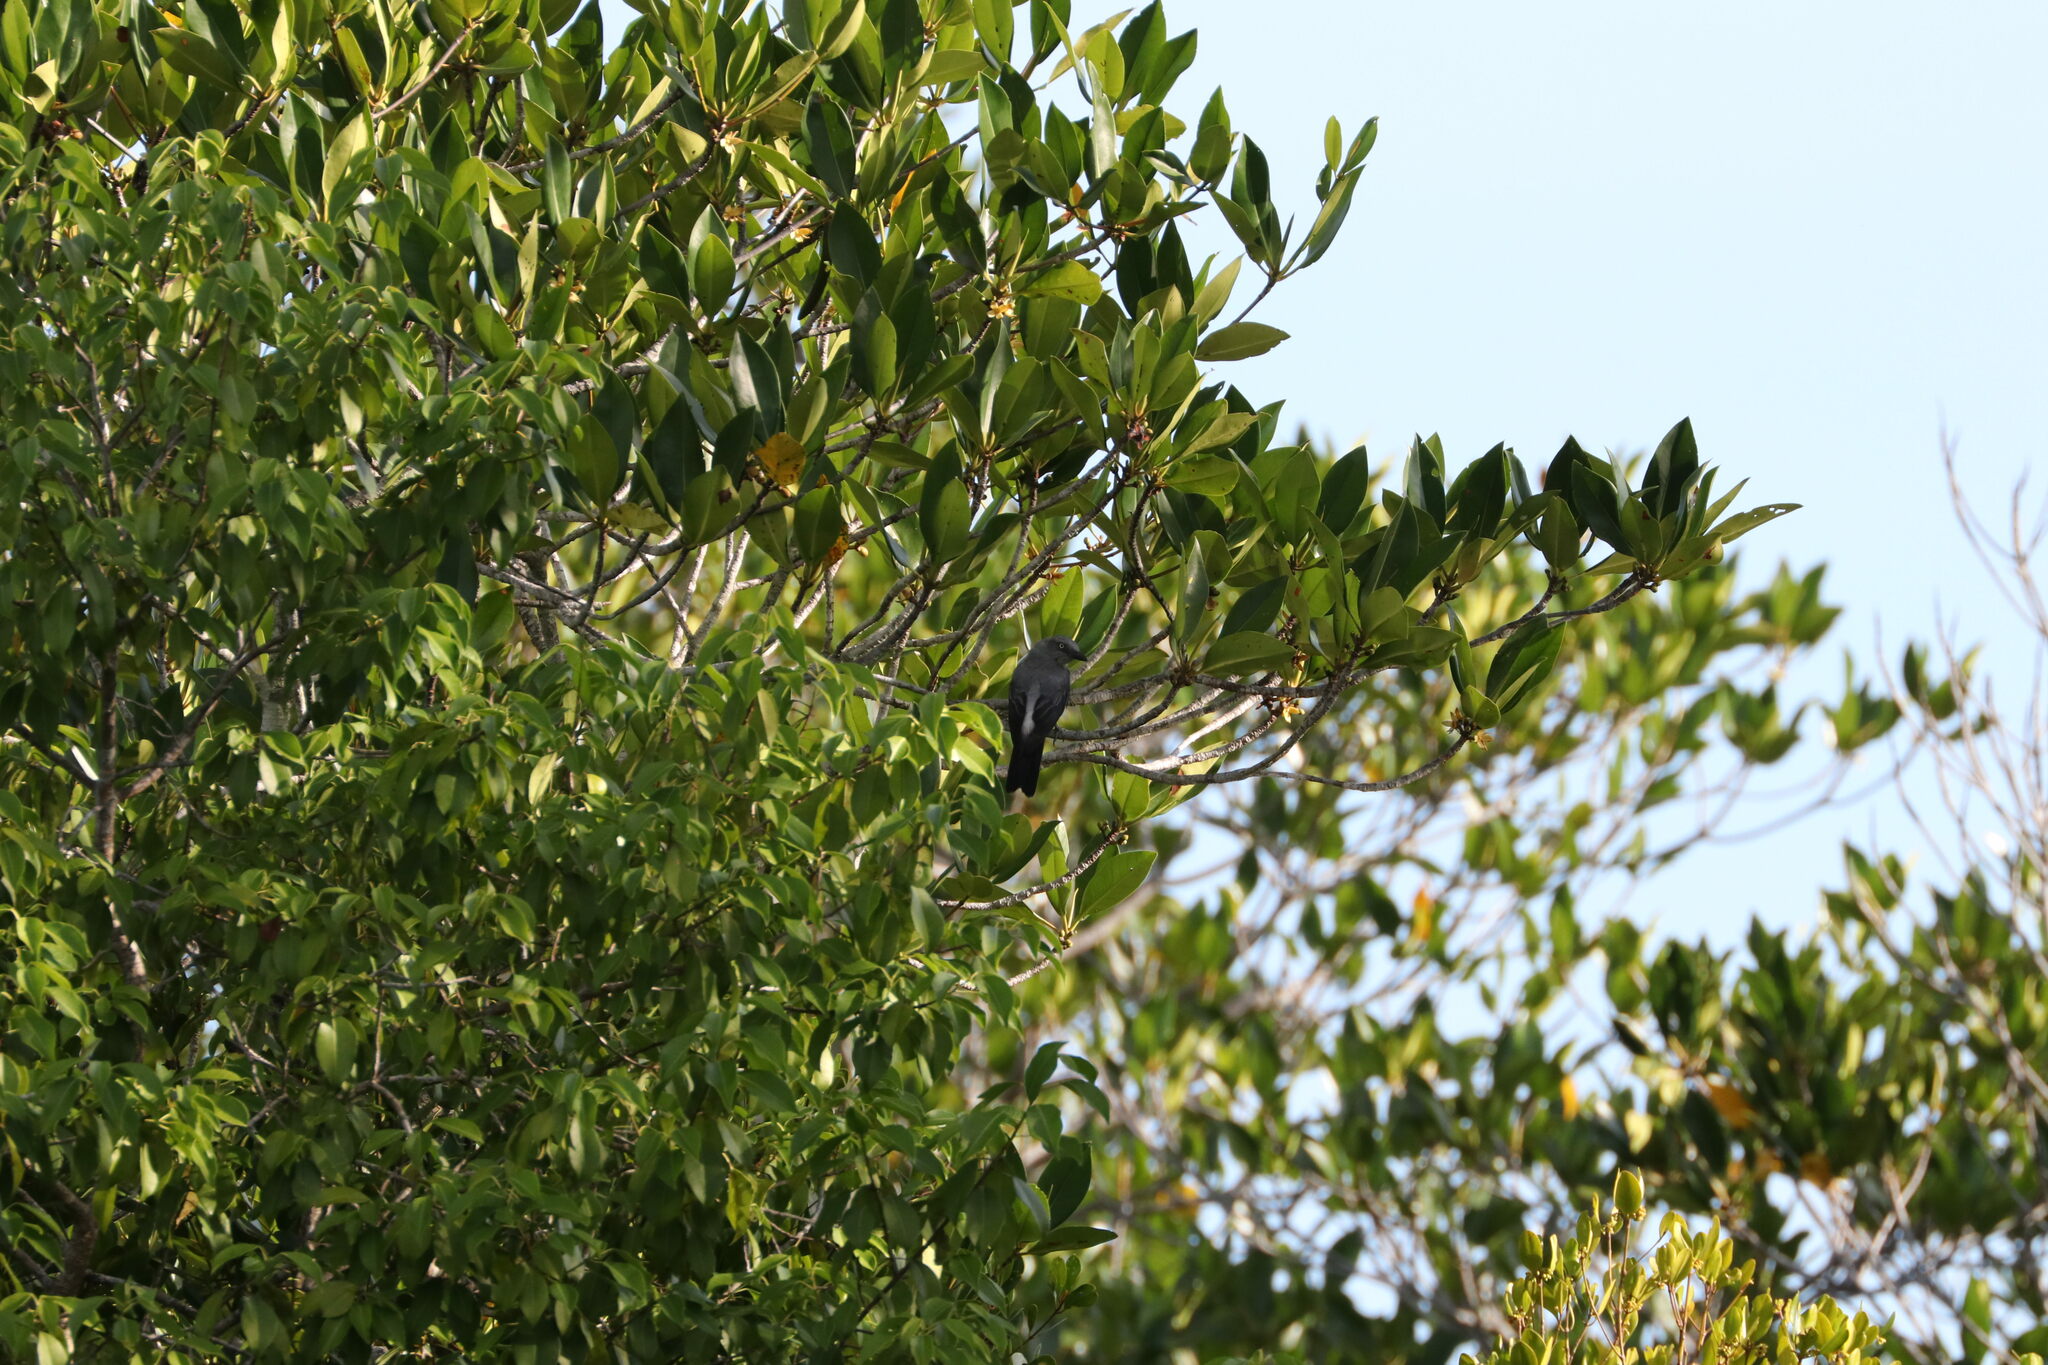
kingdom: Animalia
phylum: Chordata
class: Aves
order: Passeriformes
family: Campephagidae
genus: Coracina
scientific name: Coracina papuensis
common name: White-bellied cuckooshrike
